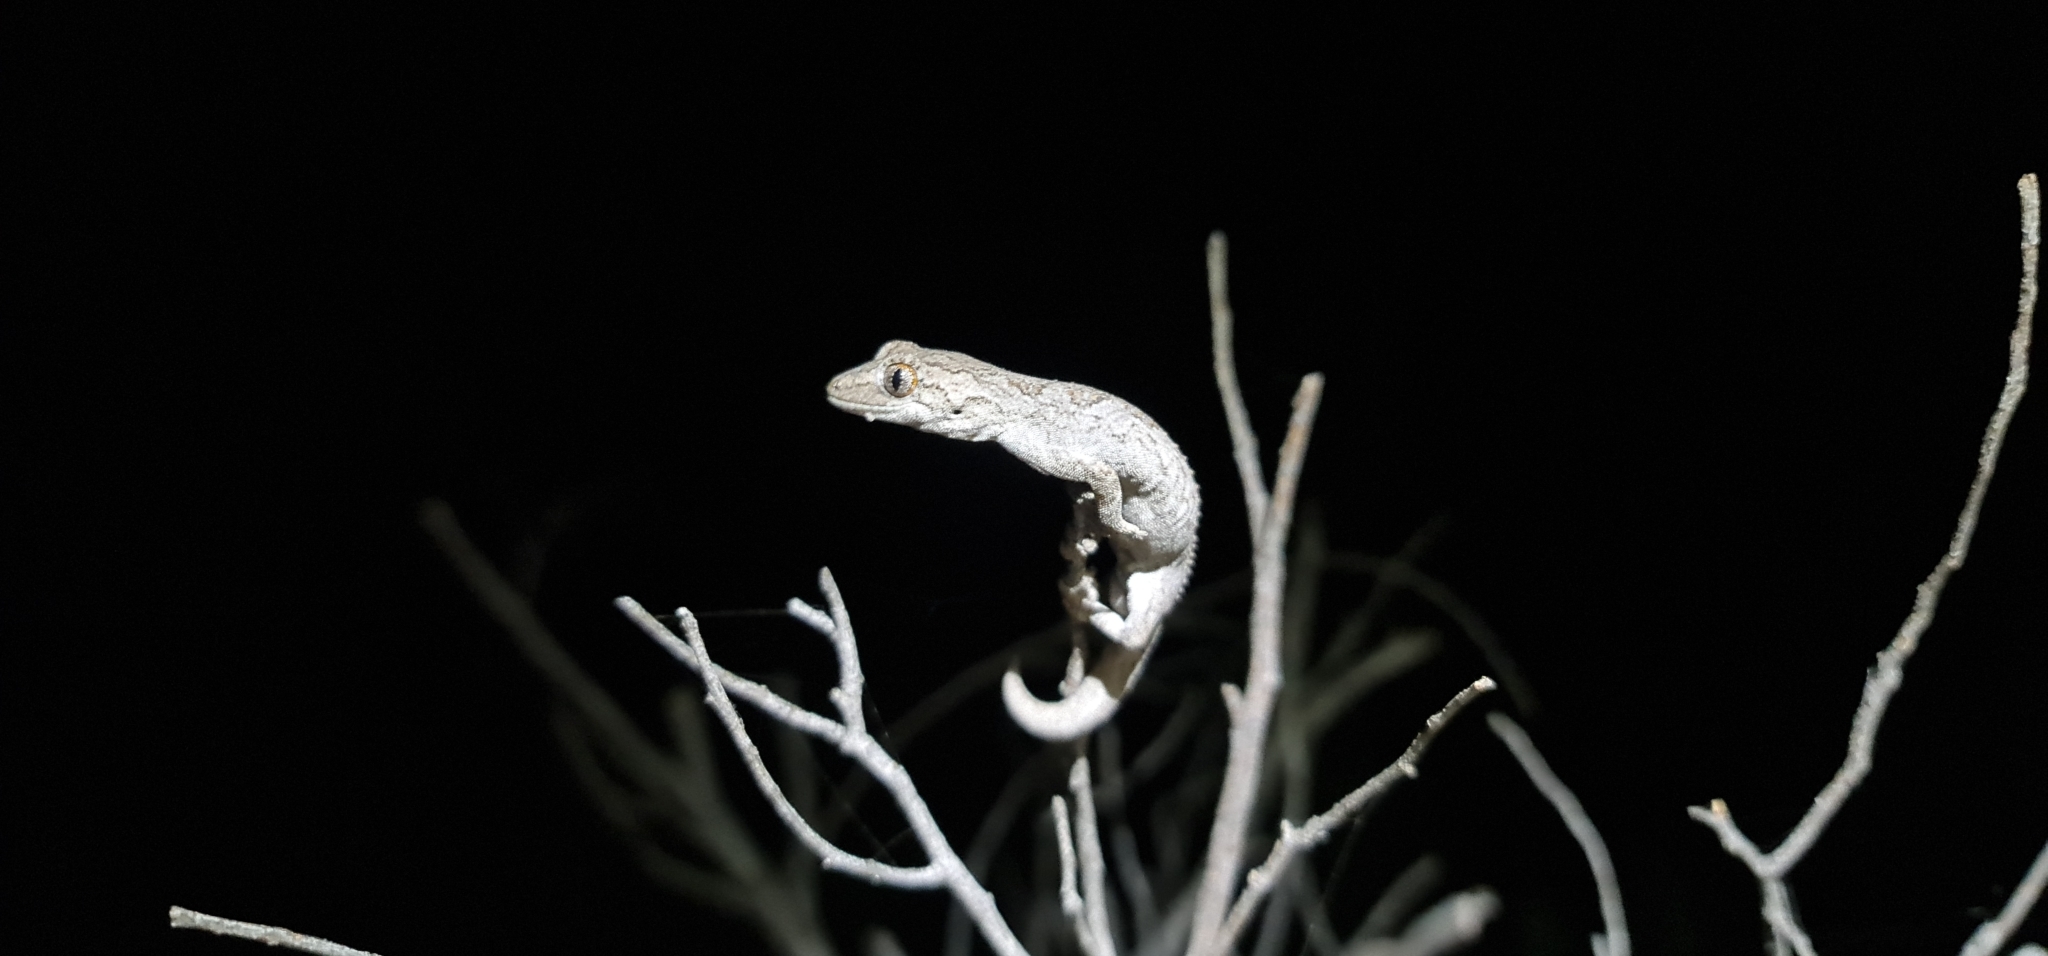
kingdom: Animalia
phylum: Chordata
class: Squamata
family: Diplodactylidae
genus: Strophurus
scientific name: Strophurus intermedius
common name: Eastern spiny-tailed gecko
